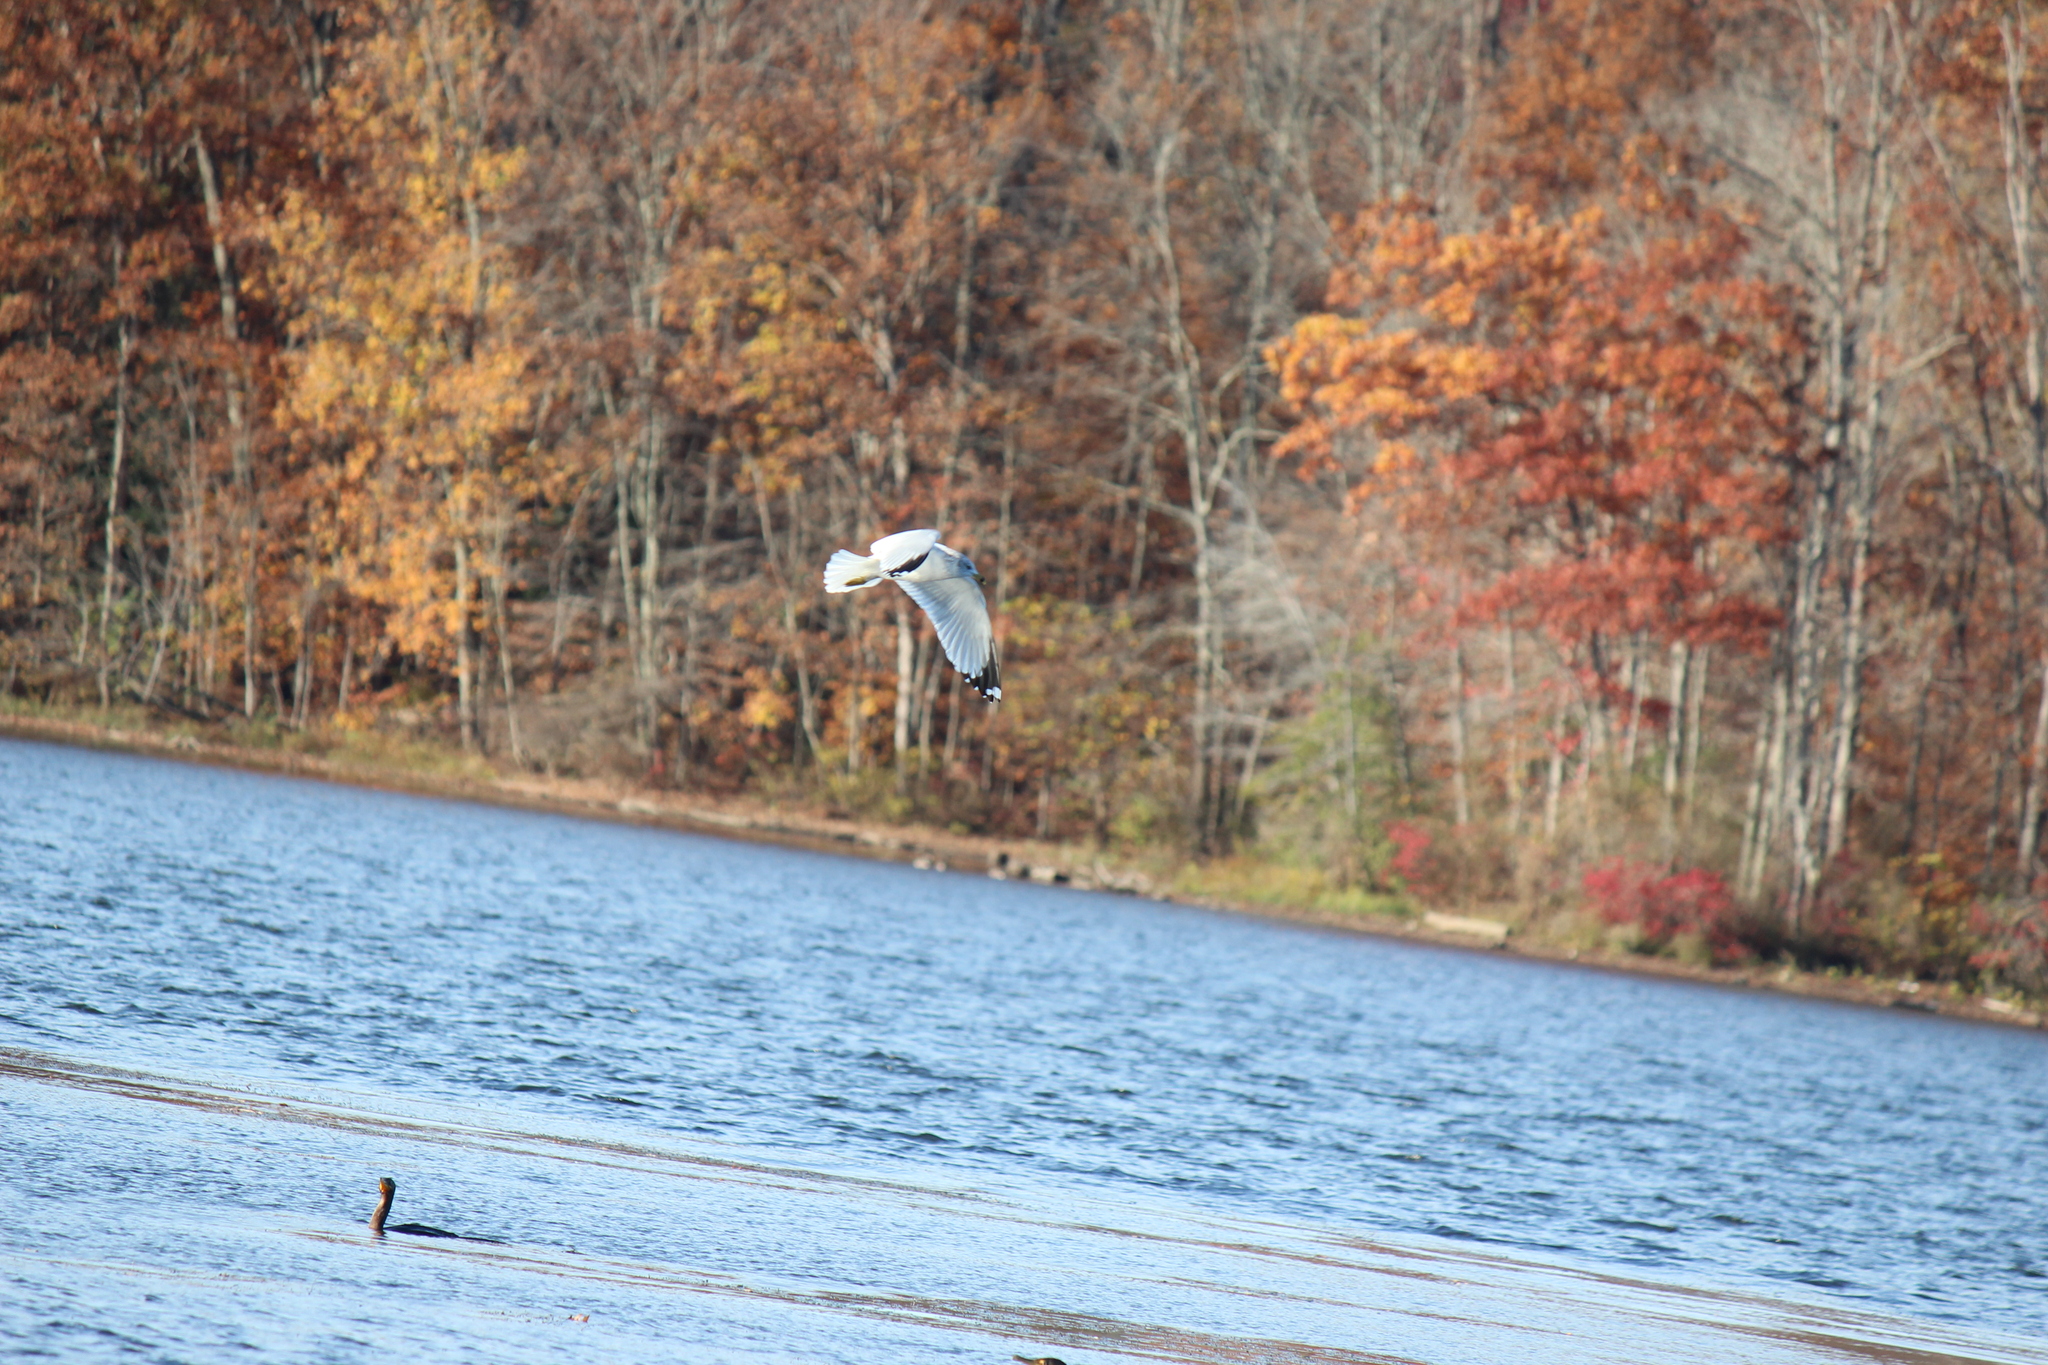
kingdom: Animalia
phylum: Chordata
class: Aves
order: Charadriiformes
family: Laridae
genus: Larus
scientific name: Larus delawarensis
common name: Ring-billed gull
